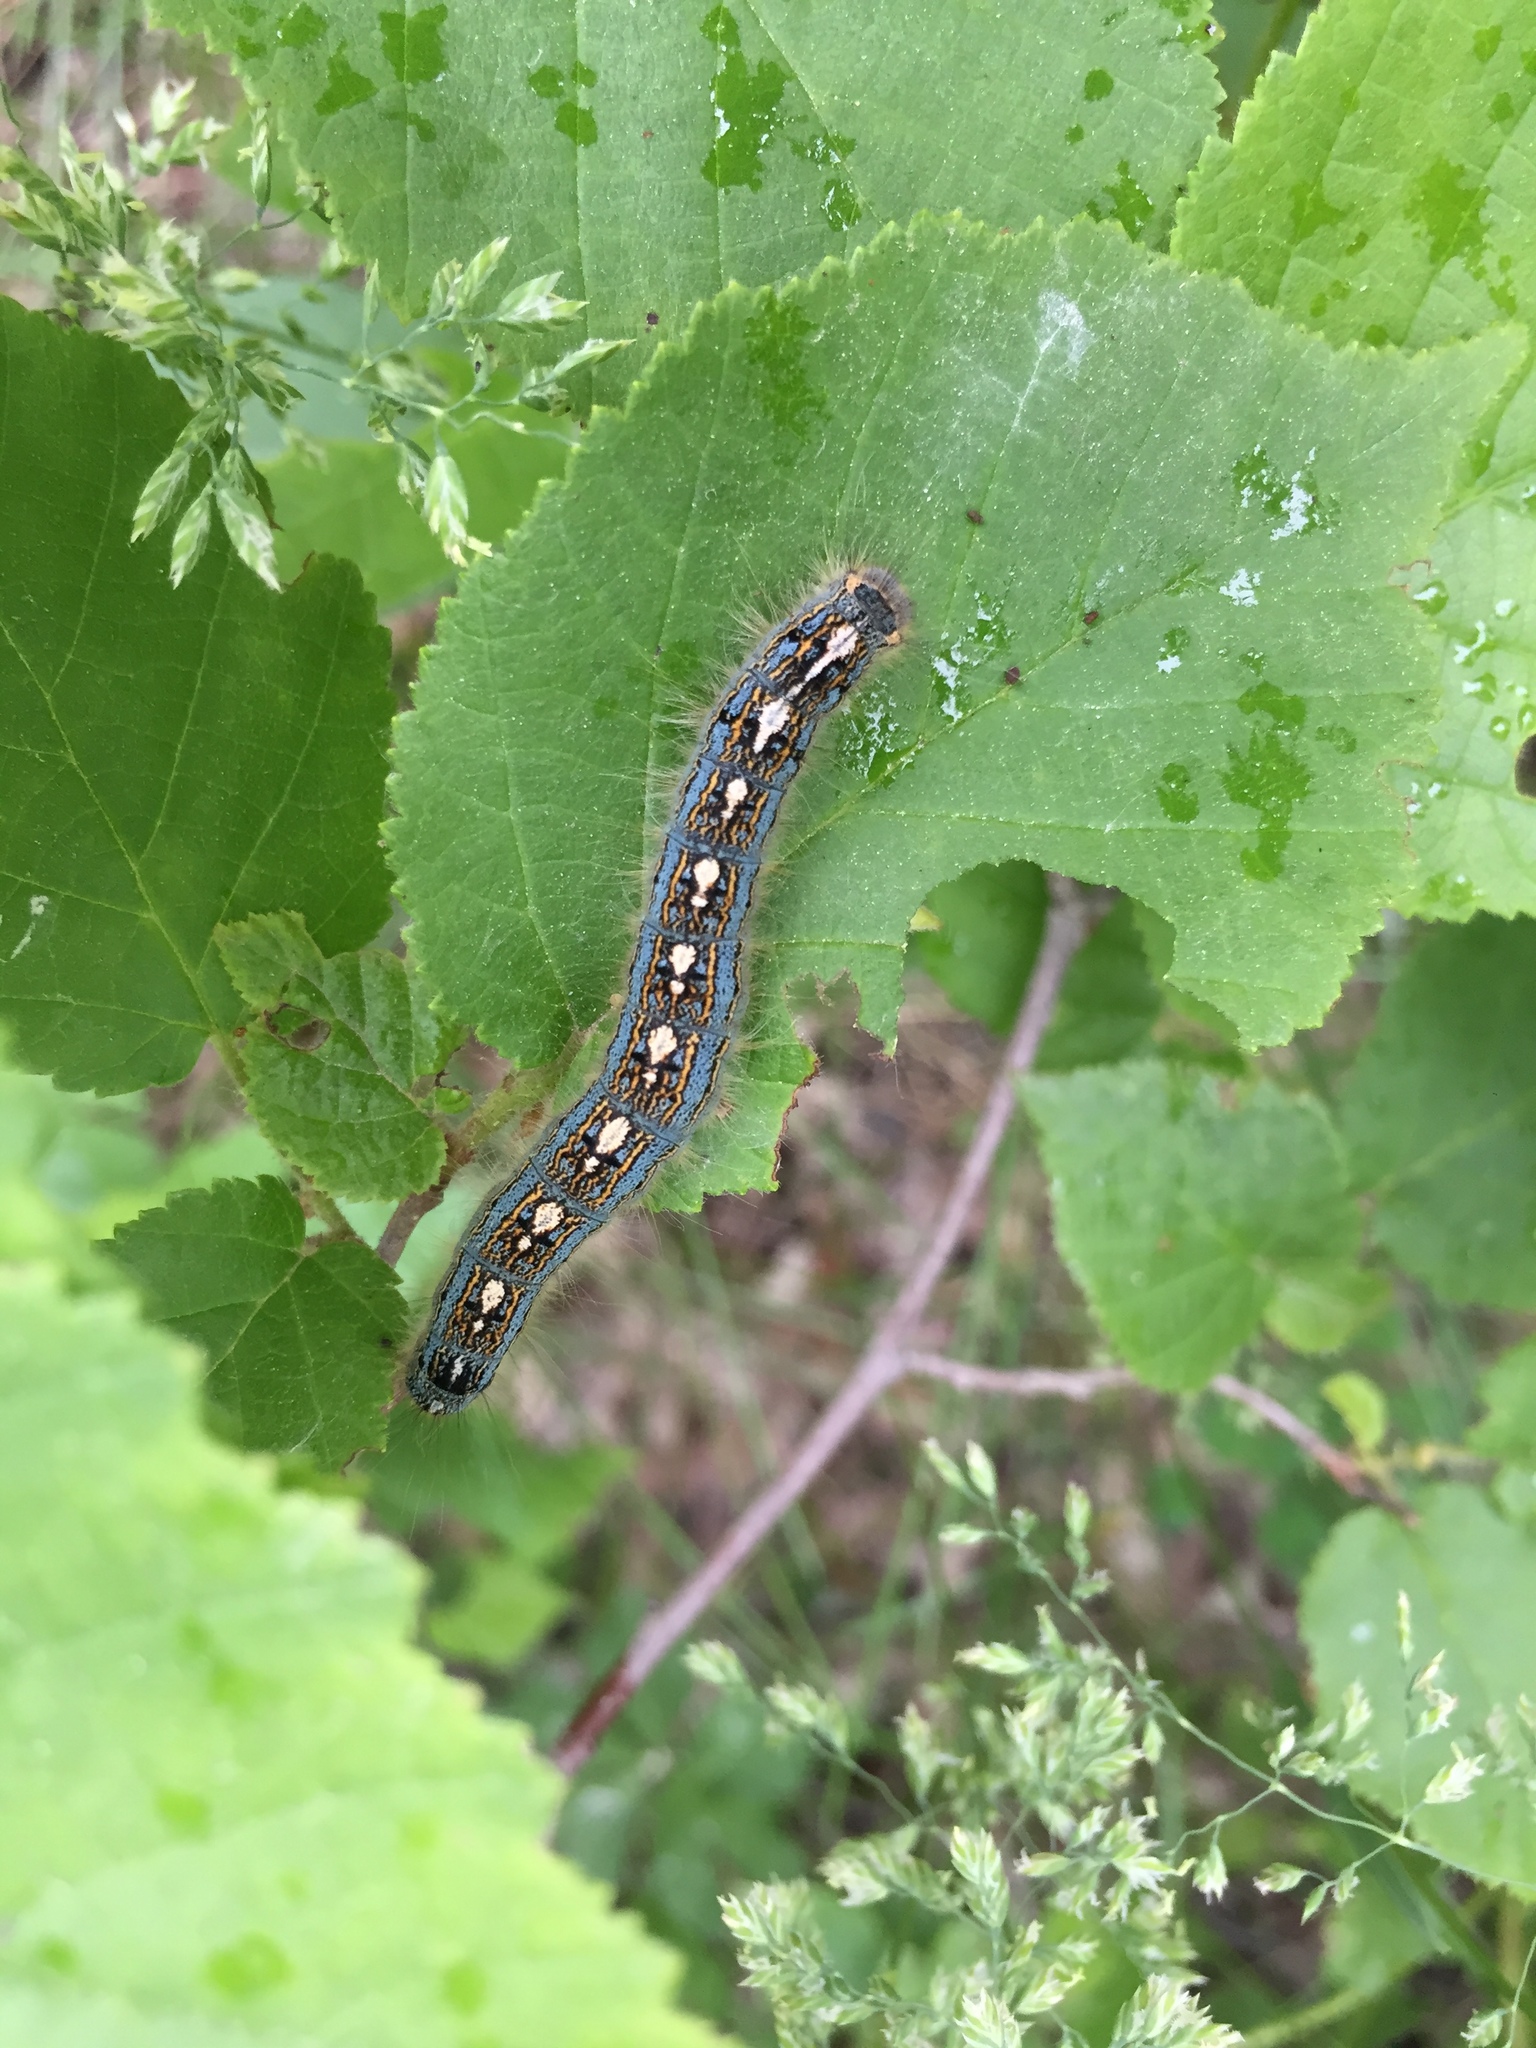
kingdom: Animalia
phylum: Arthropoda
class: Insecta
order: Lepidoptera
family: Lasiocampidae
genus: Malacosoma
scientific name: Malacosoma disstria
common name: Forest tent caterpillar
